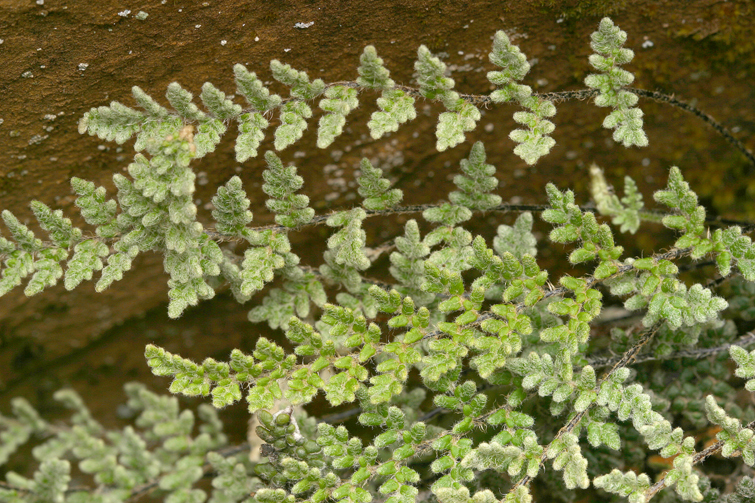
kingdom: Plantae
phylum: Tracheophyta
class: Polypodiopsida
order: Polypodiales
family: Pteridaceae
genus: Myriopteris
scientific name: Myriopteris gracillima
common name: Lace fern
